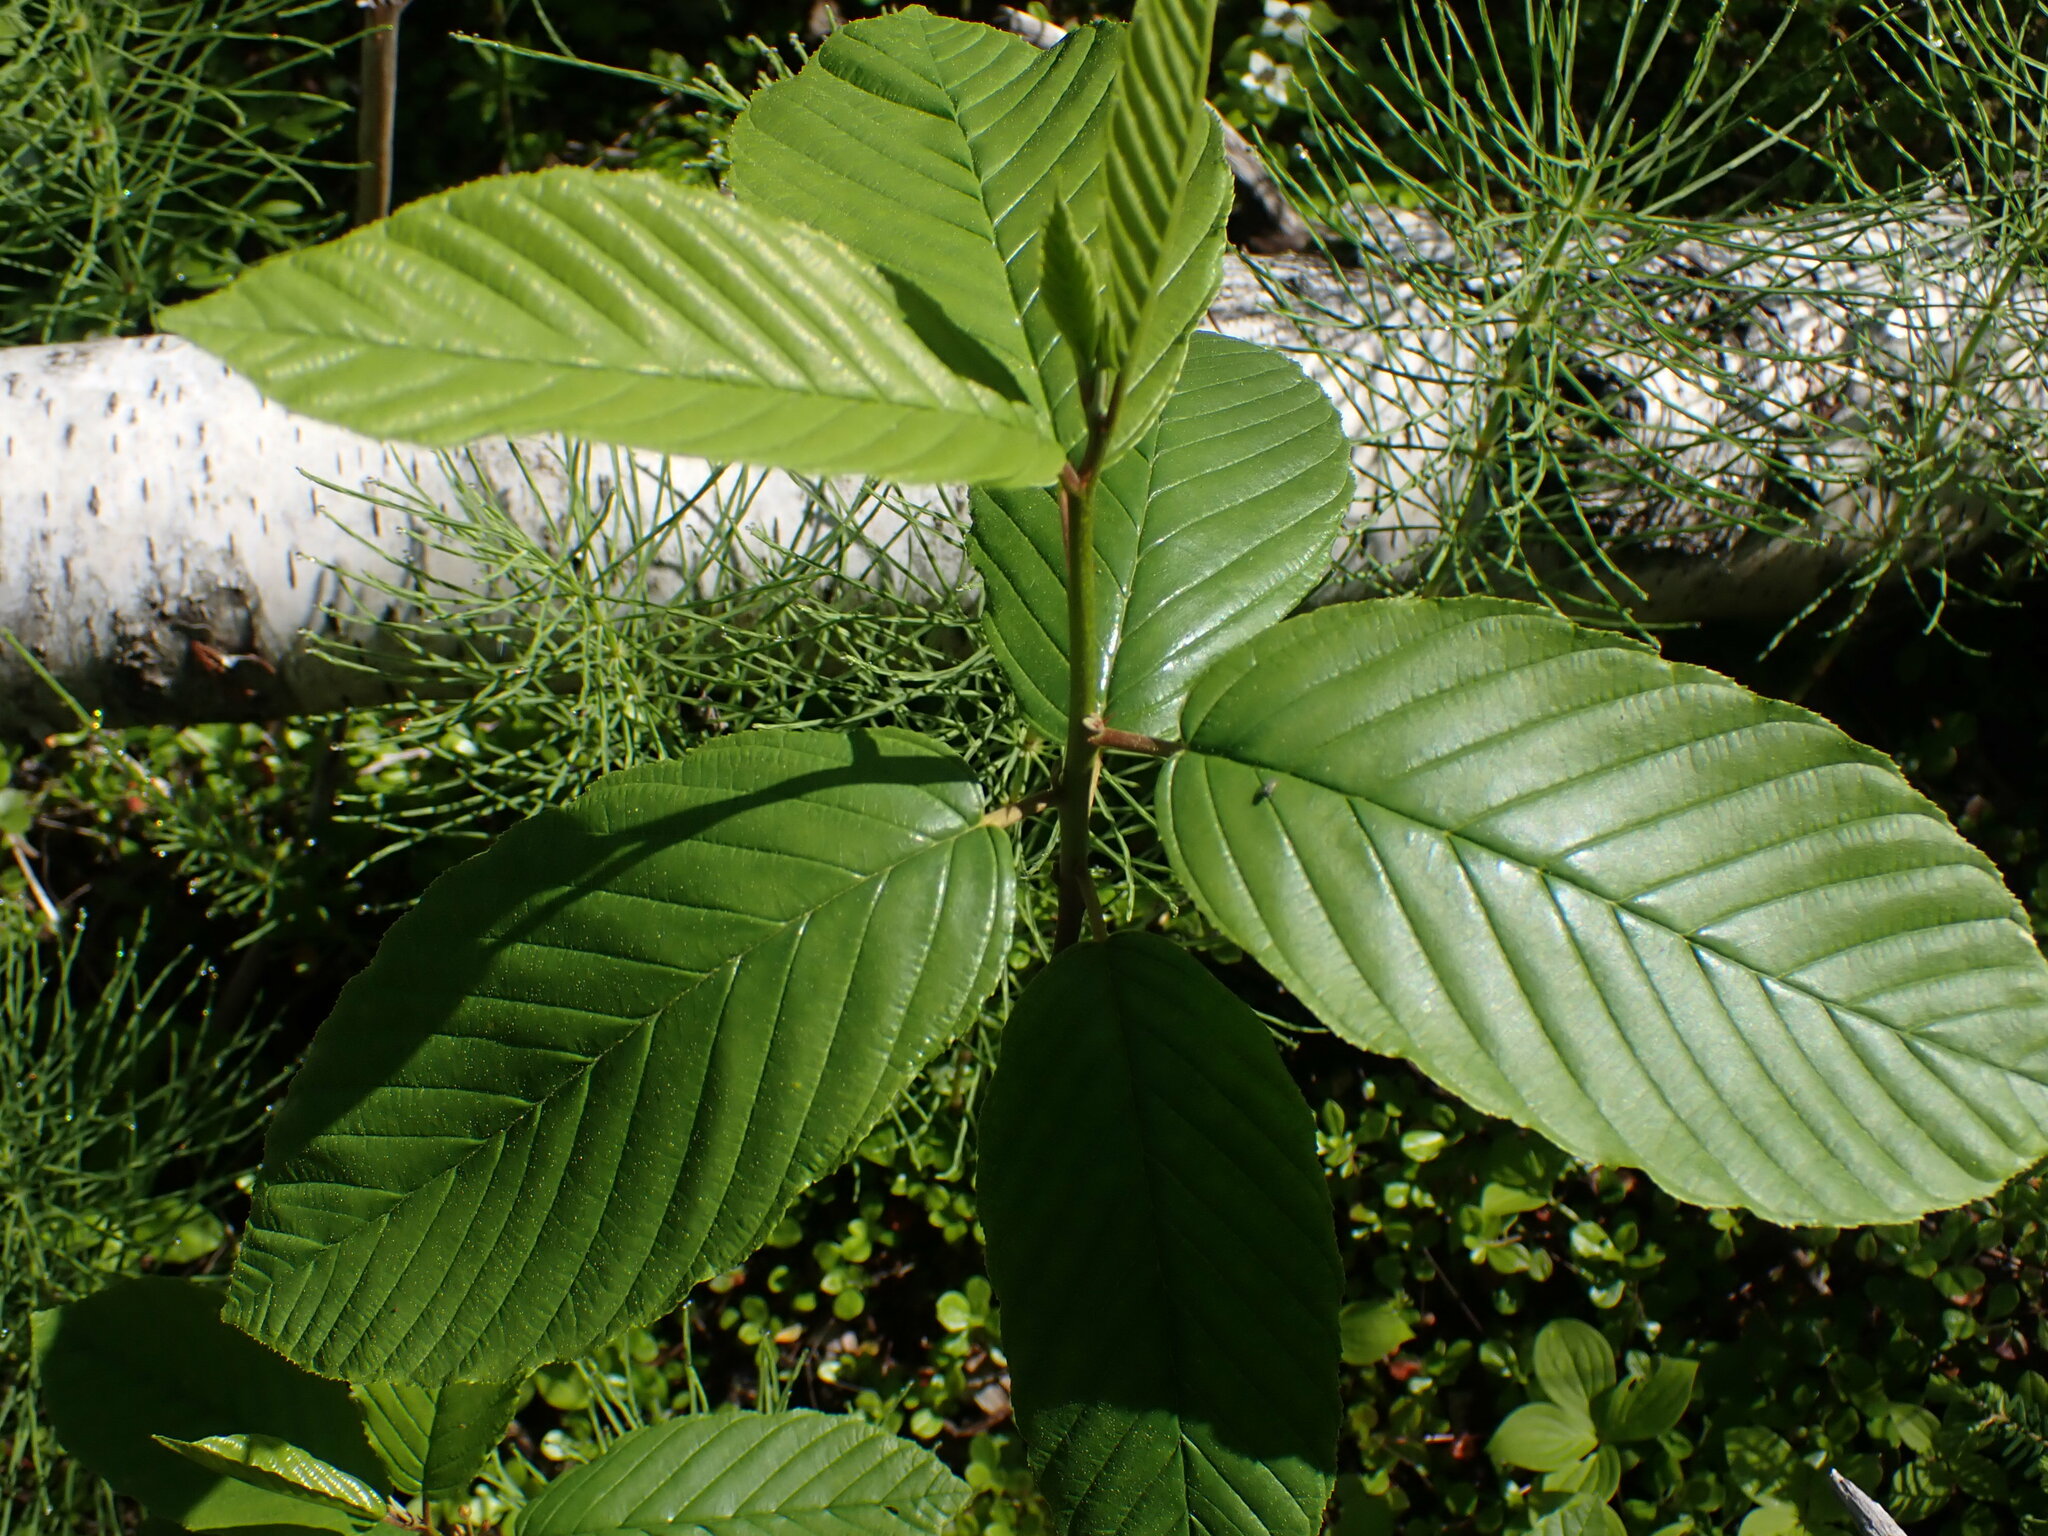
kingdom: Plantae
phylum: Tracheophyta
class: Magnoliopsida
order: Rosales
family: Rhamnaceae
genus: Frangula
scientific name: Frangula purshiana
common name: Cascara buckthorn
